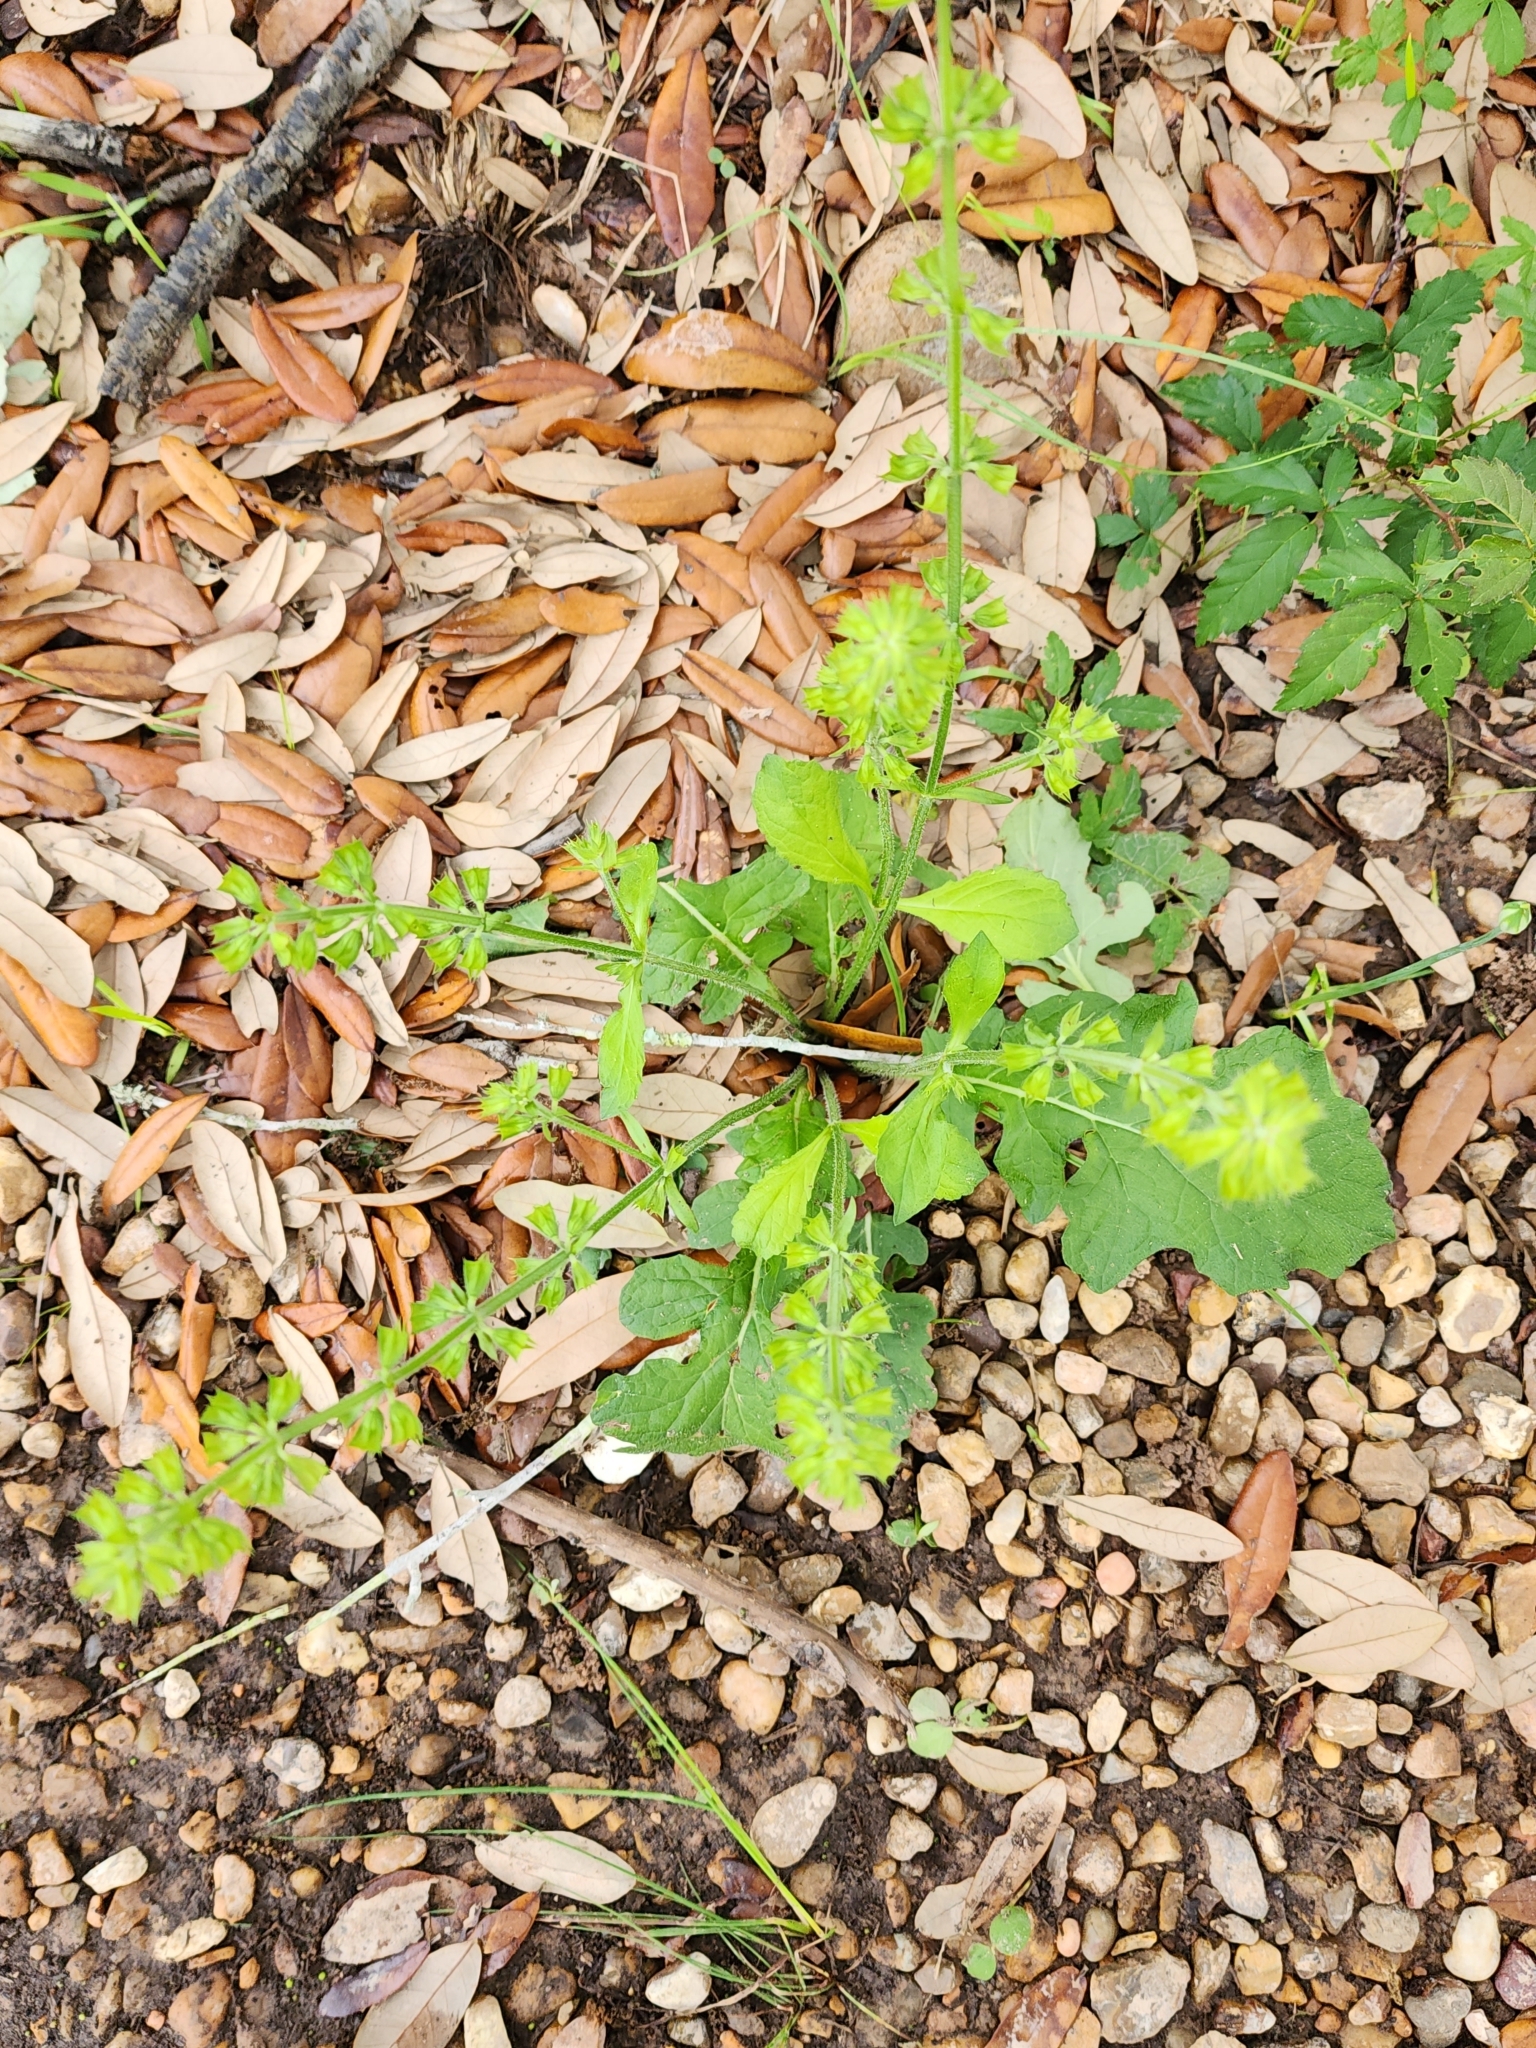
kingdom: Plantae
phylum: Tracheophyta
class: Magnoliopsida
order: Lamiales
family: Lamiaceae
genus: Salvia
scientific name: Salvia lyrata
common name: Cancerweed
